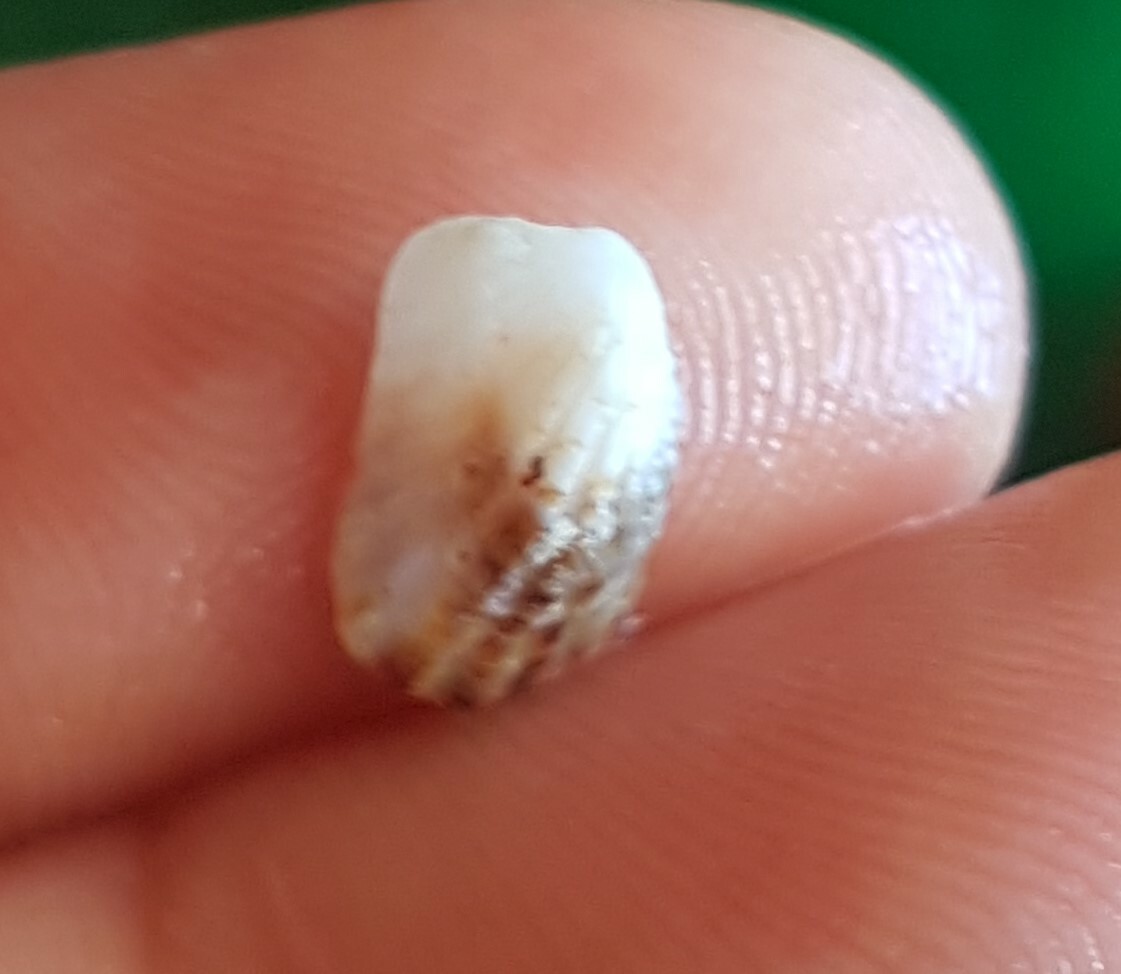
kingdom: Animalia
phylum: Mollusca
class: Bivalvia
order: Carditida
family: Carditidae
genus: Cardita
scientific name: Cardita calyculata
